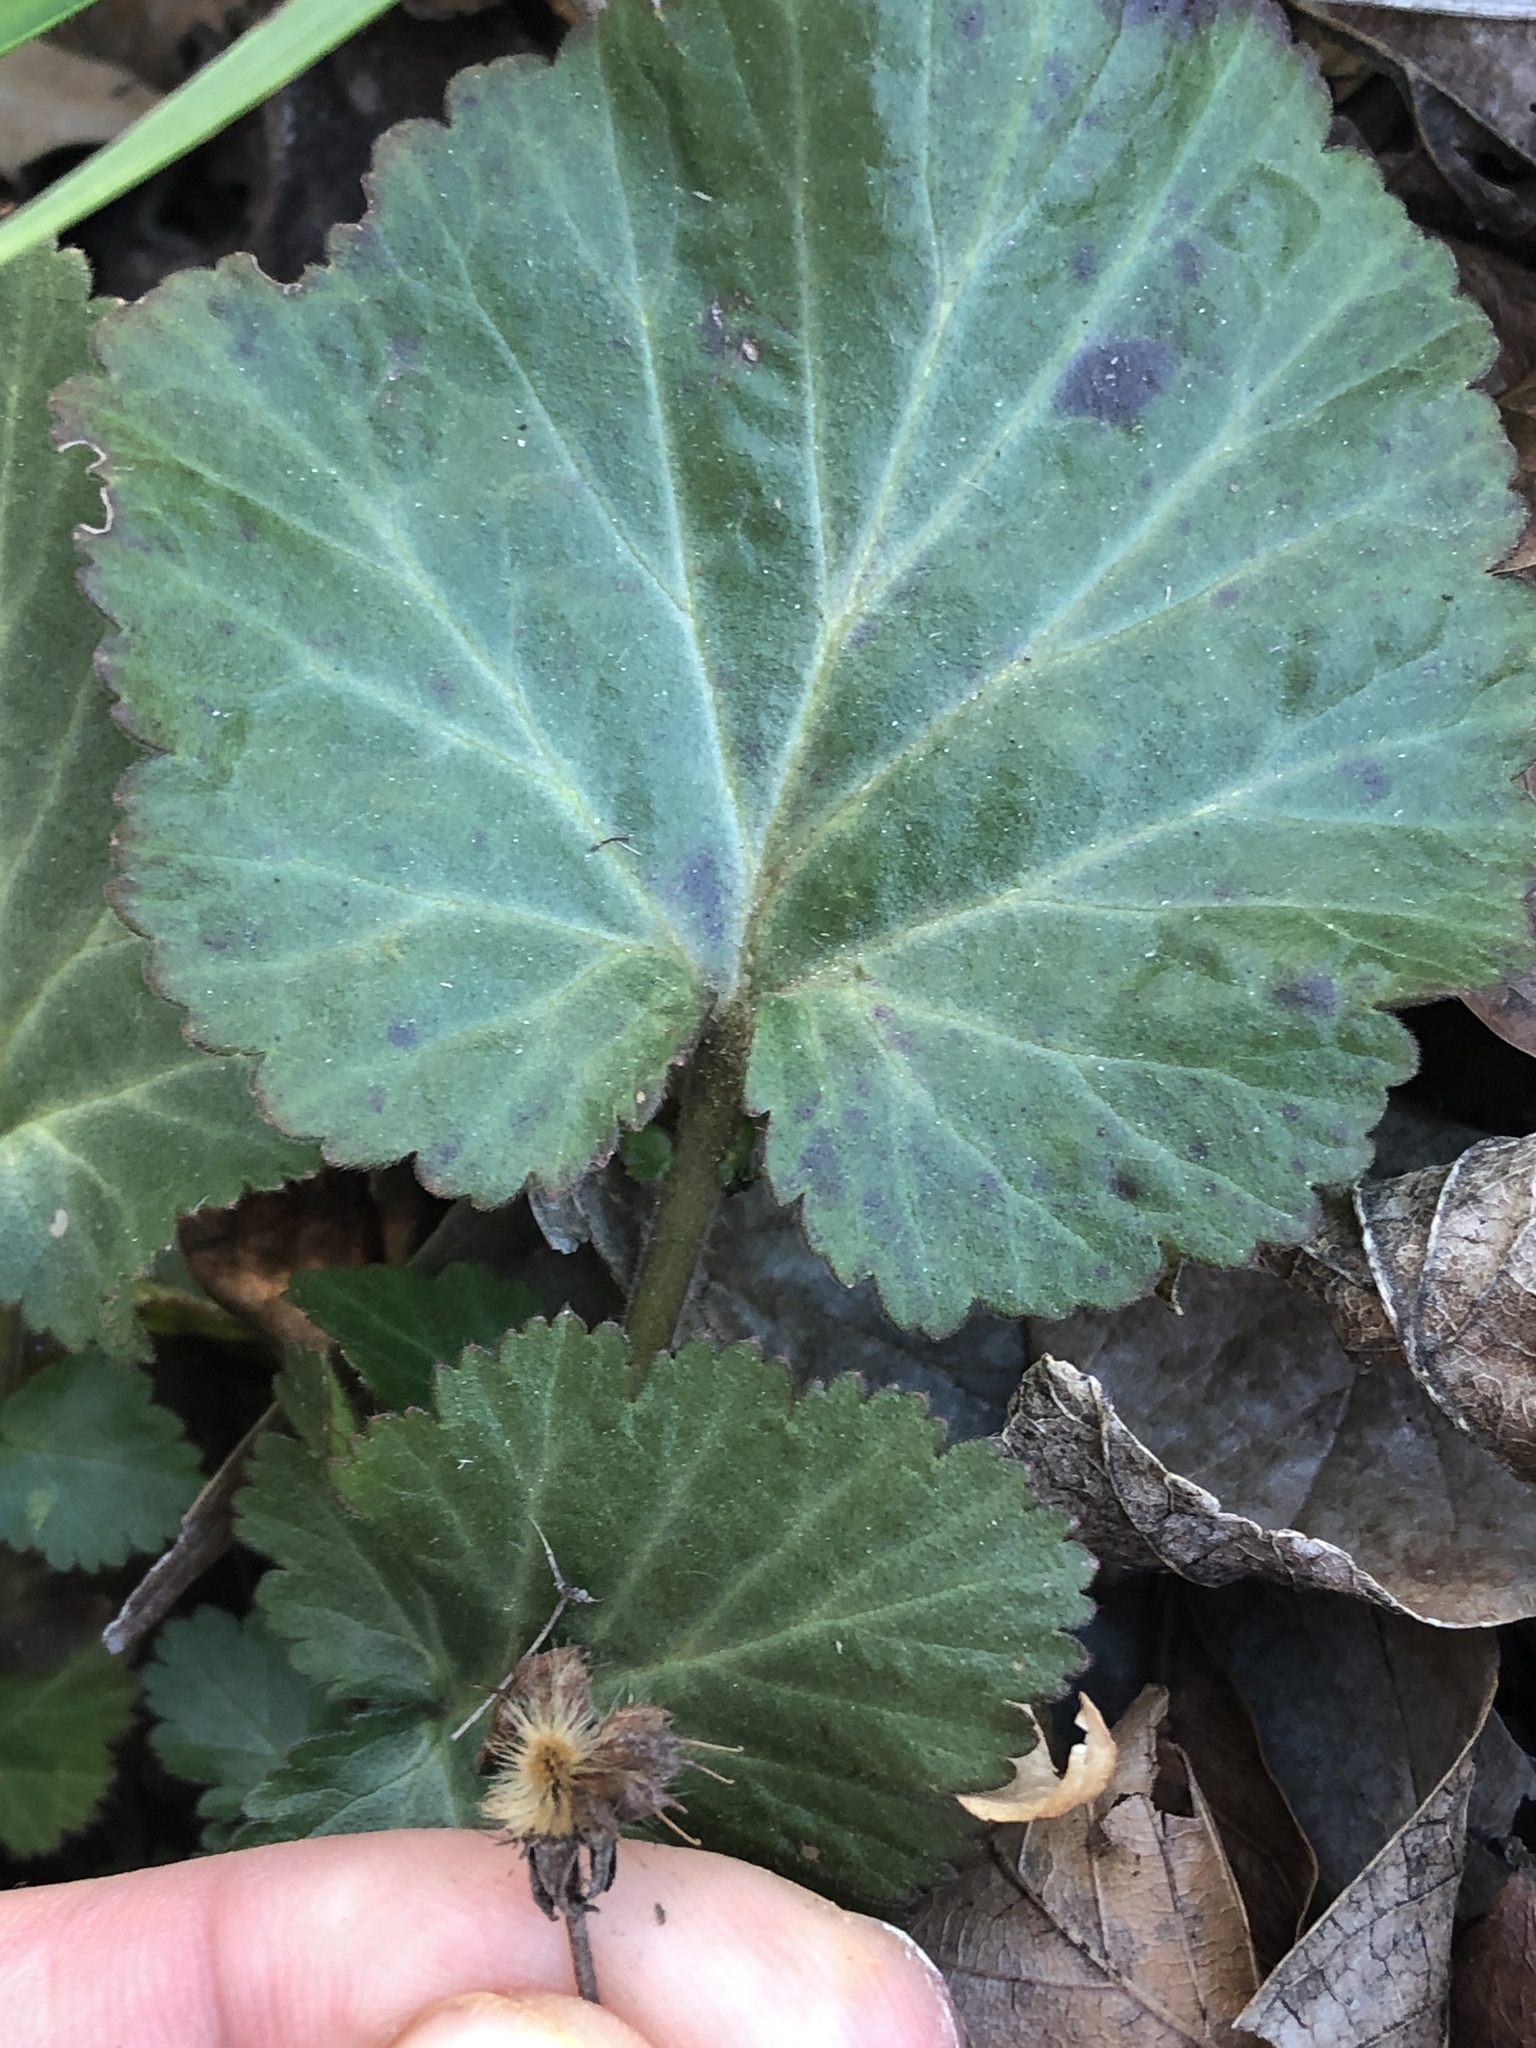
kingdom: Plantae
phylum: Tracheophyta
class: Magnoliopsida
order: Rosales
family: Rosaceae
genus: Geum
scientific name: Geum canadense
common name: White avens
